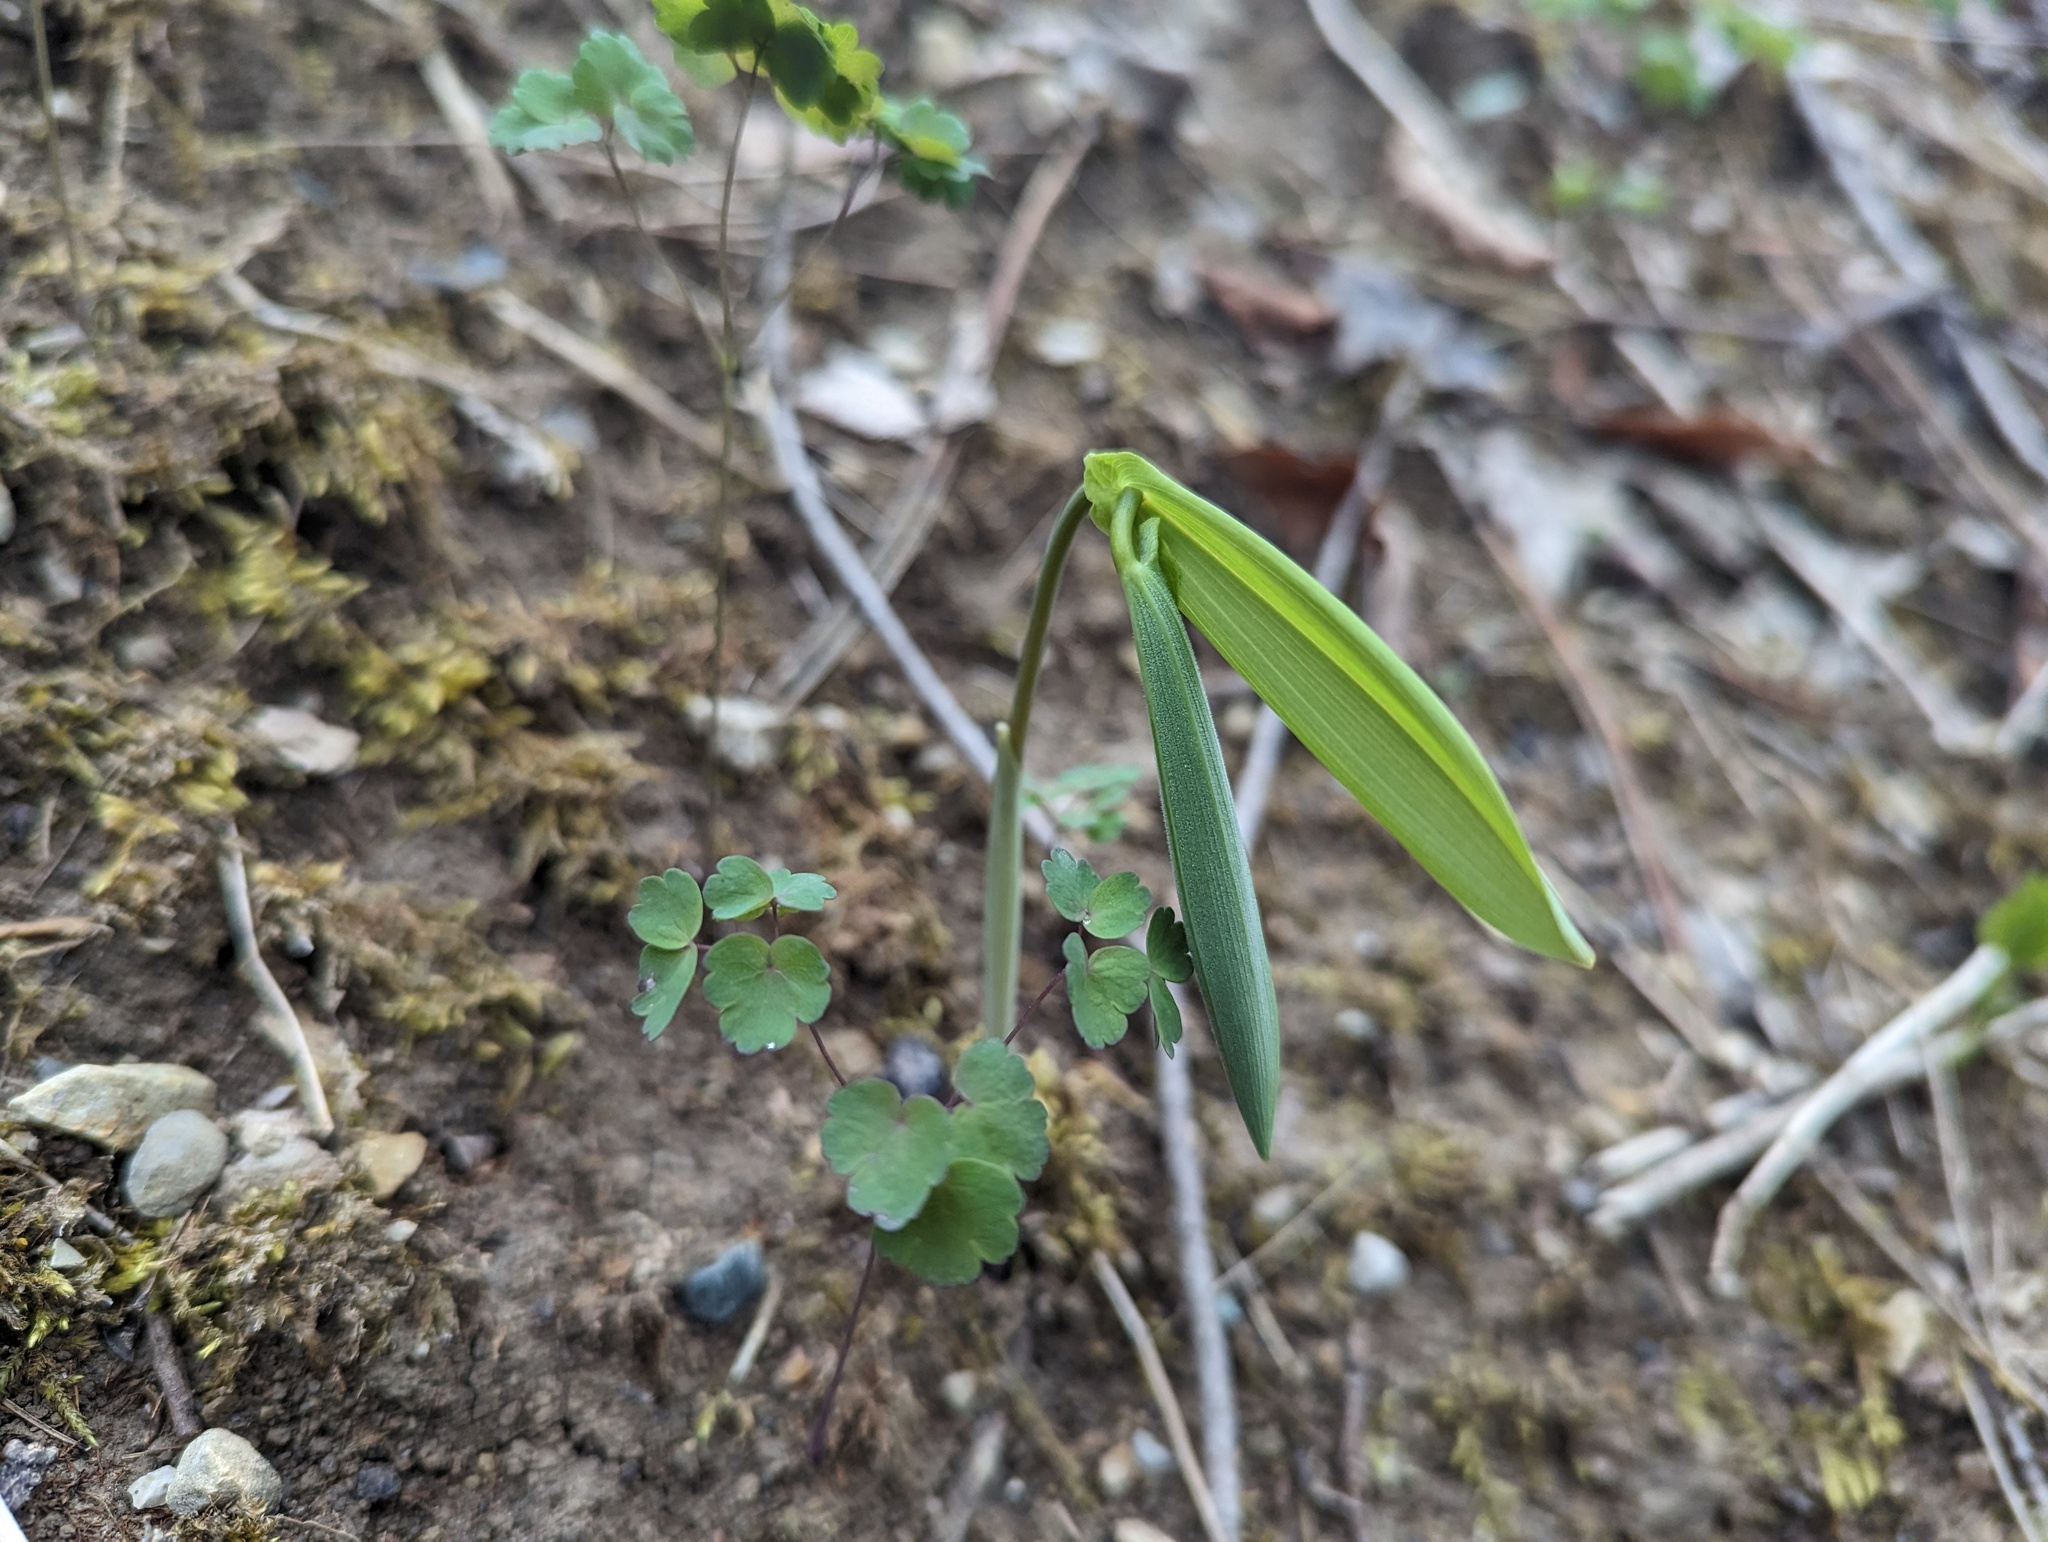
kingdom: Plantae
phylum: Tracheophyta
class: Liliopsida
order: Liliales
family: Colchicaceae
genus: Uvularia
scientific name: Uvularia grandiflora
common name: Bellwort
